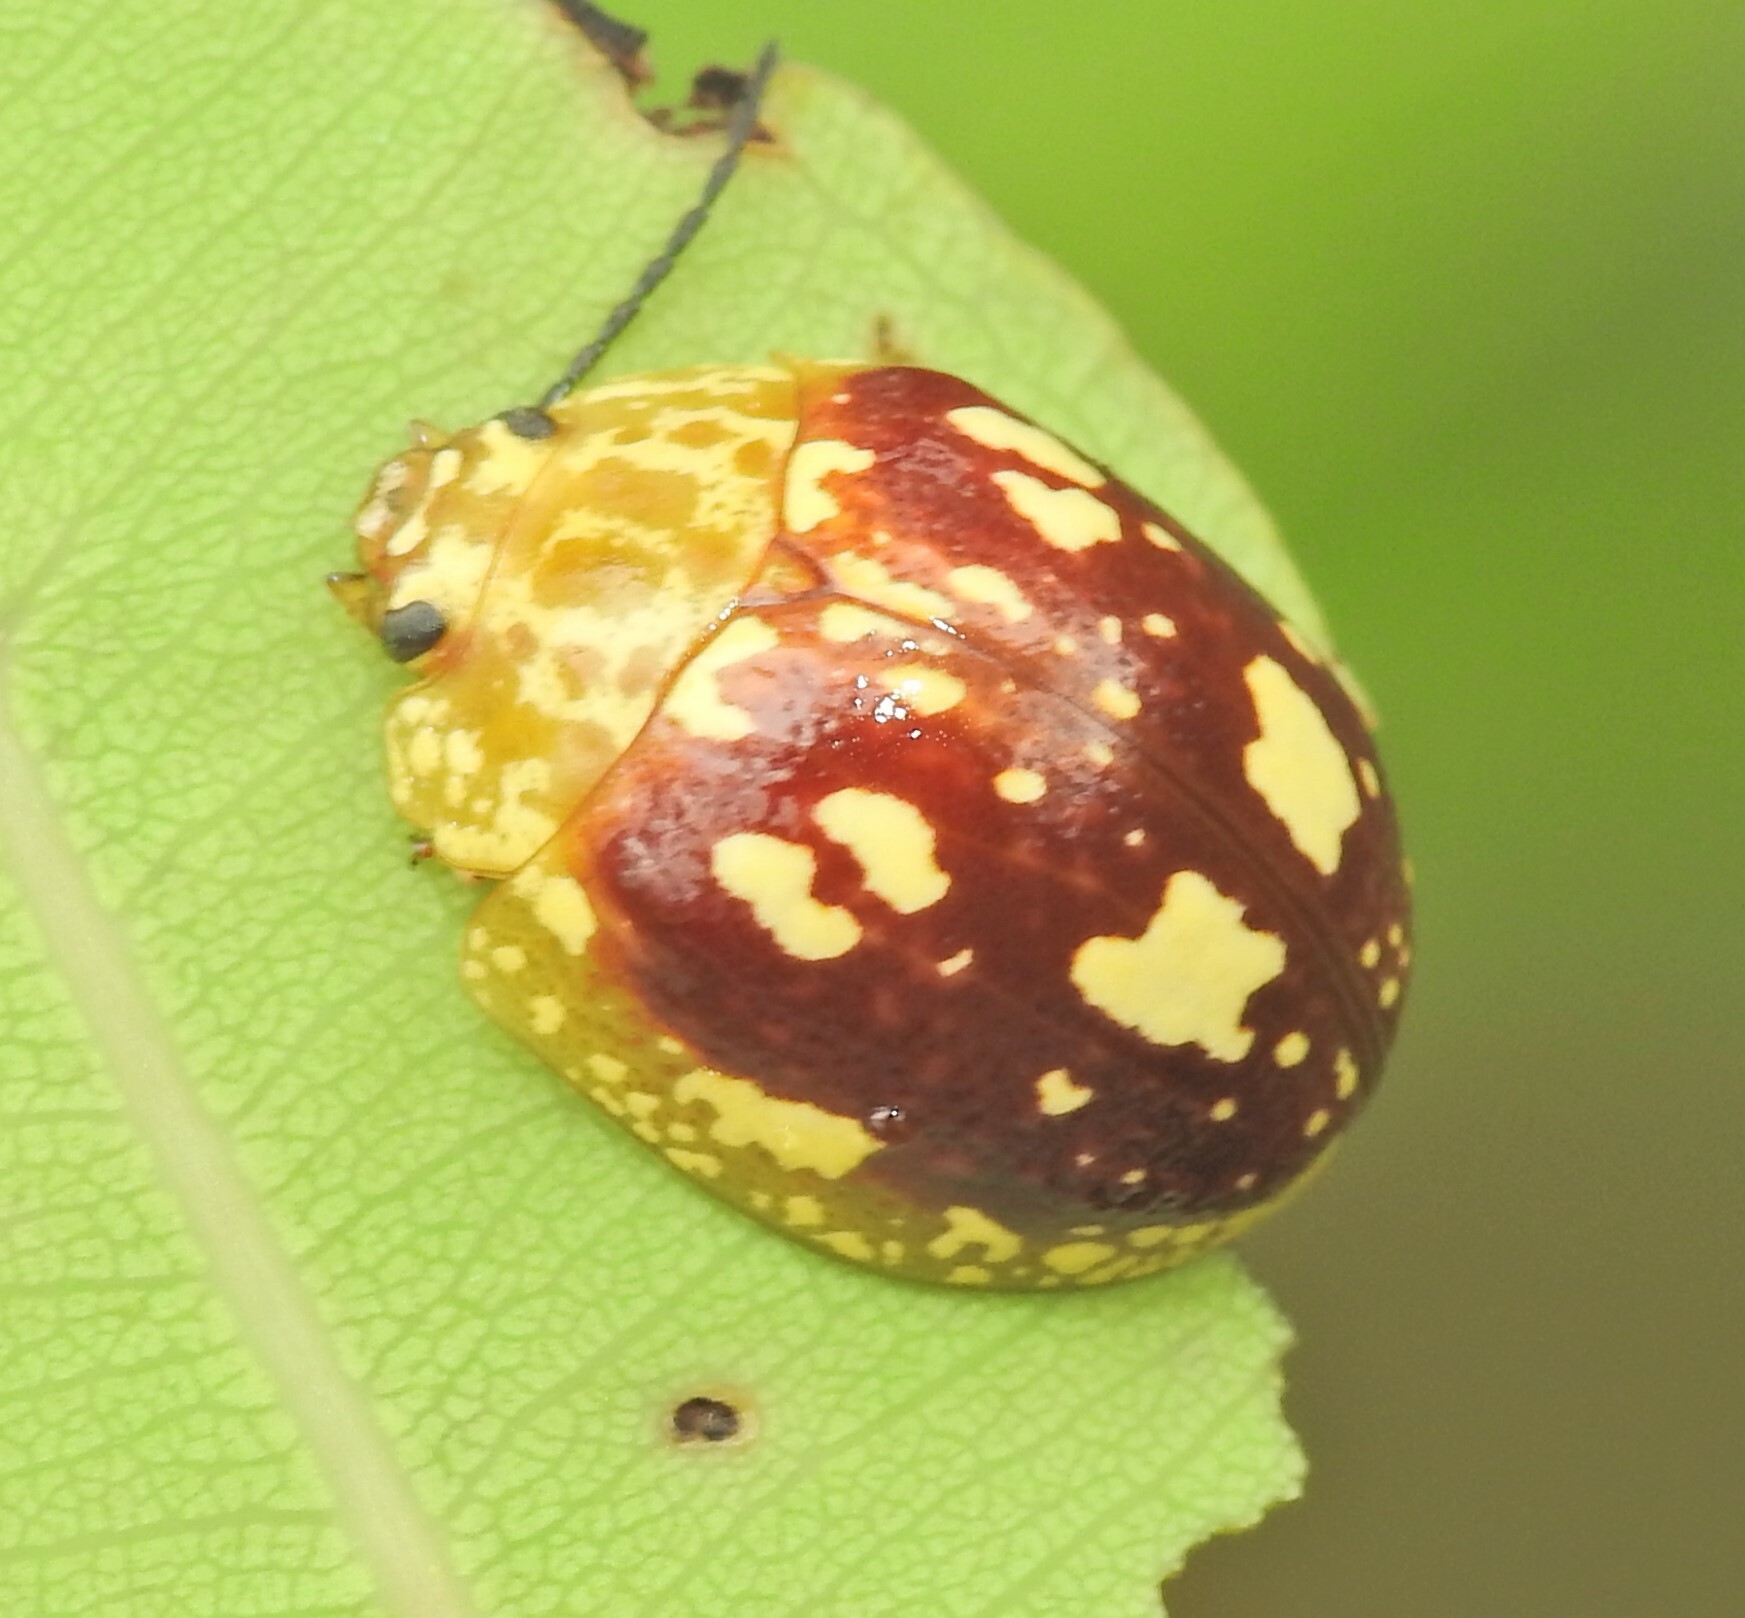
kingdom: Animalia
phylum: Arthropoda
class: Insecta
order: Coleoptera
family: Chrysomelidae
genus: Paropsis
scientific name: Paropsis maculata
